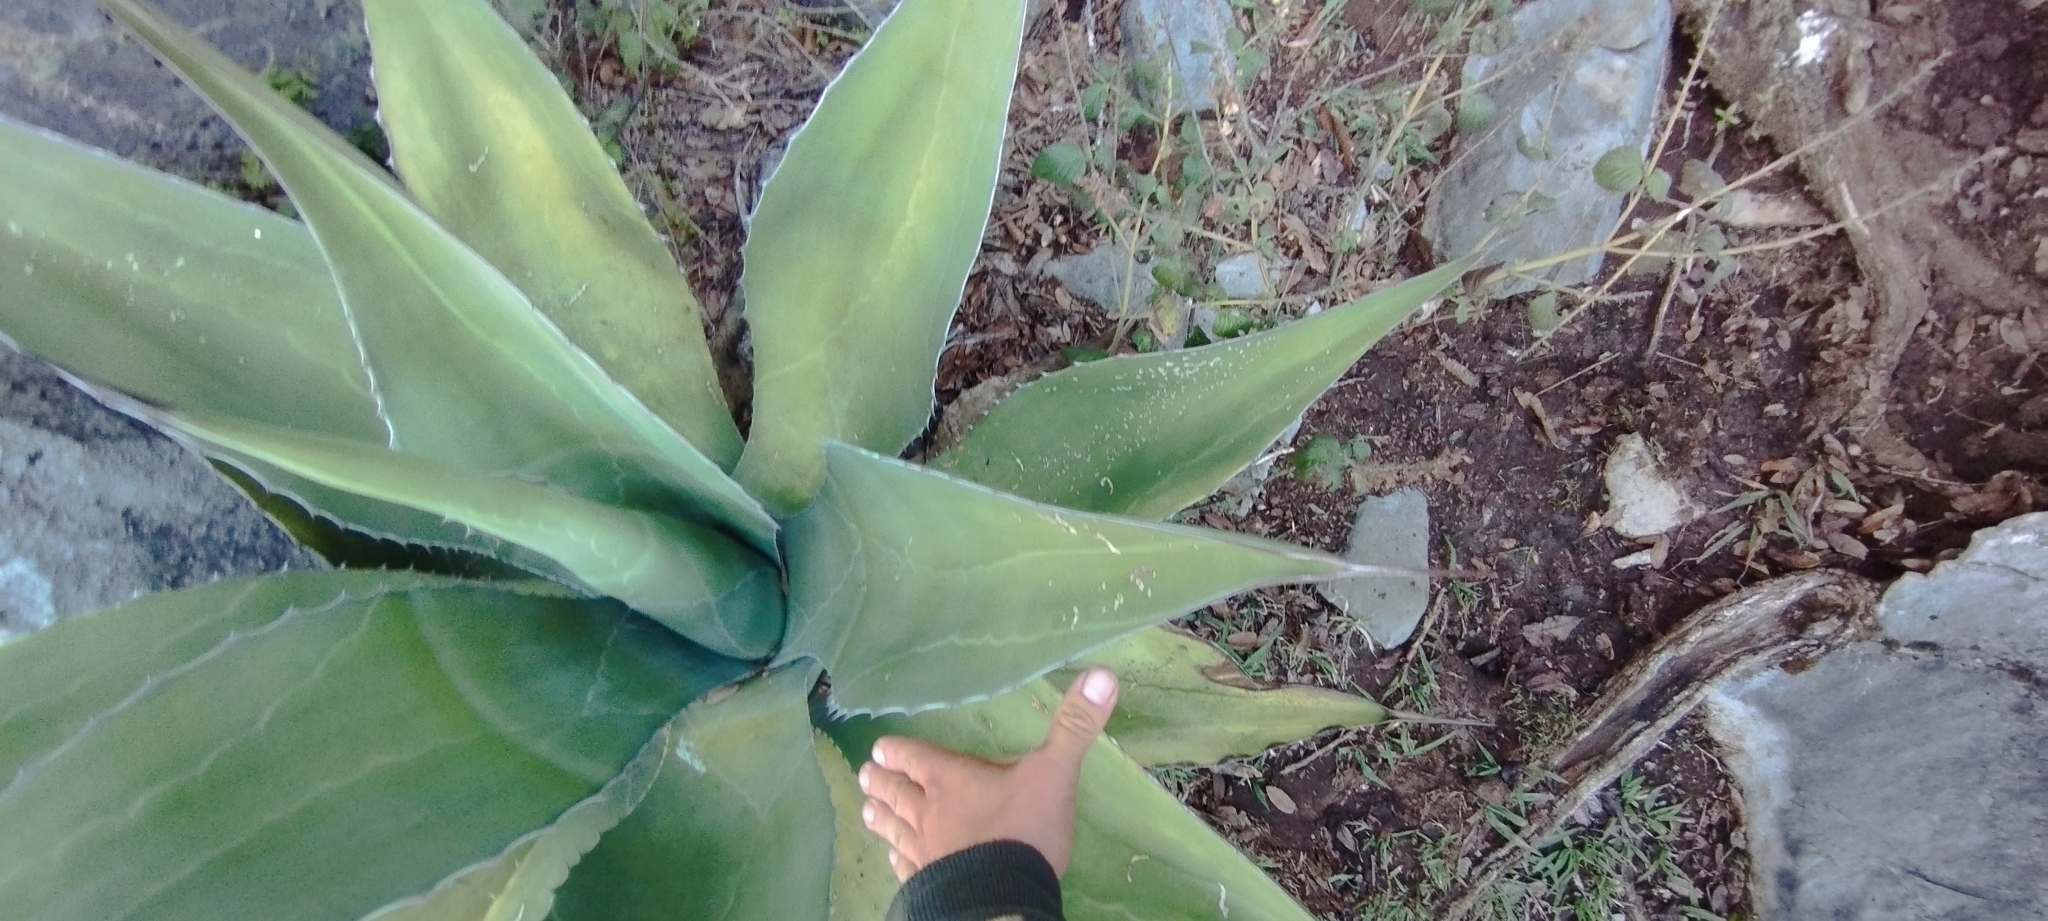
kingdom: Plantae
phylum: Tracheophyta
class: Liliopsida
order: Asparagales
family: Asparagaceae
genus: Agave
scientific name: Agave salmiana
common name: Pulque agave
